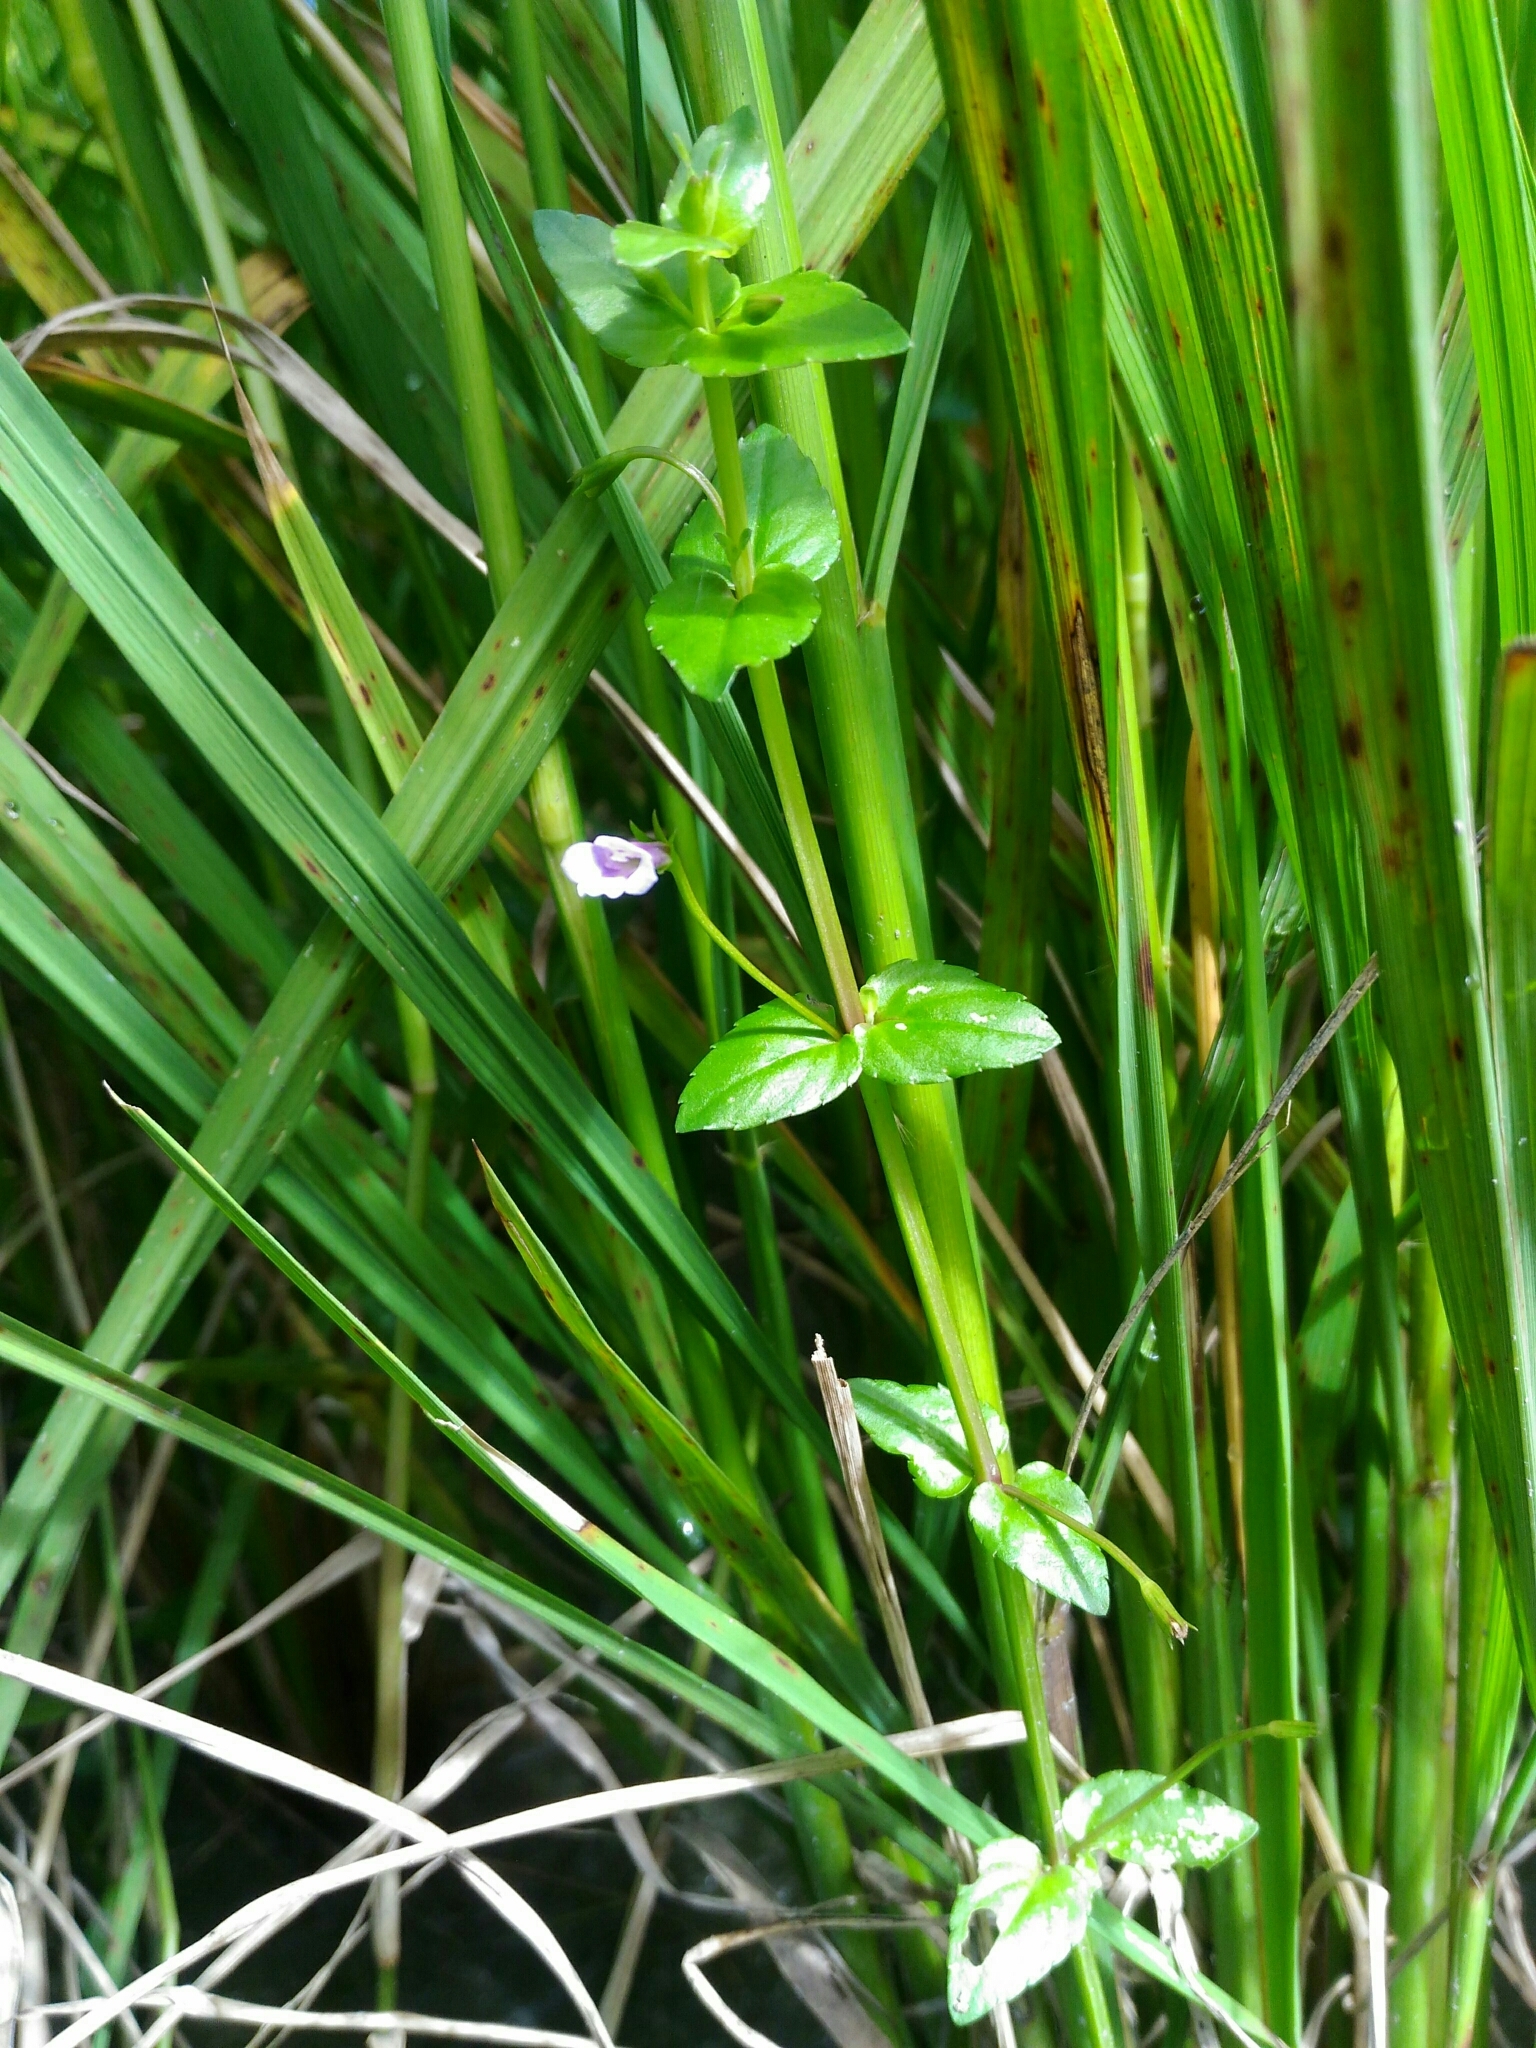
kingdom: Plantae
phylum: Tracheophyta
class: Magnoliopsida
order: Lamiales
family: Linderniaceae
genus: Torenia
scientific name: Torenia anagallis
